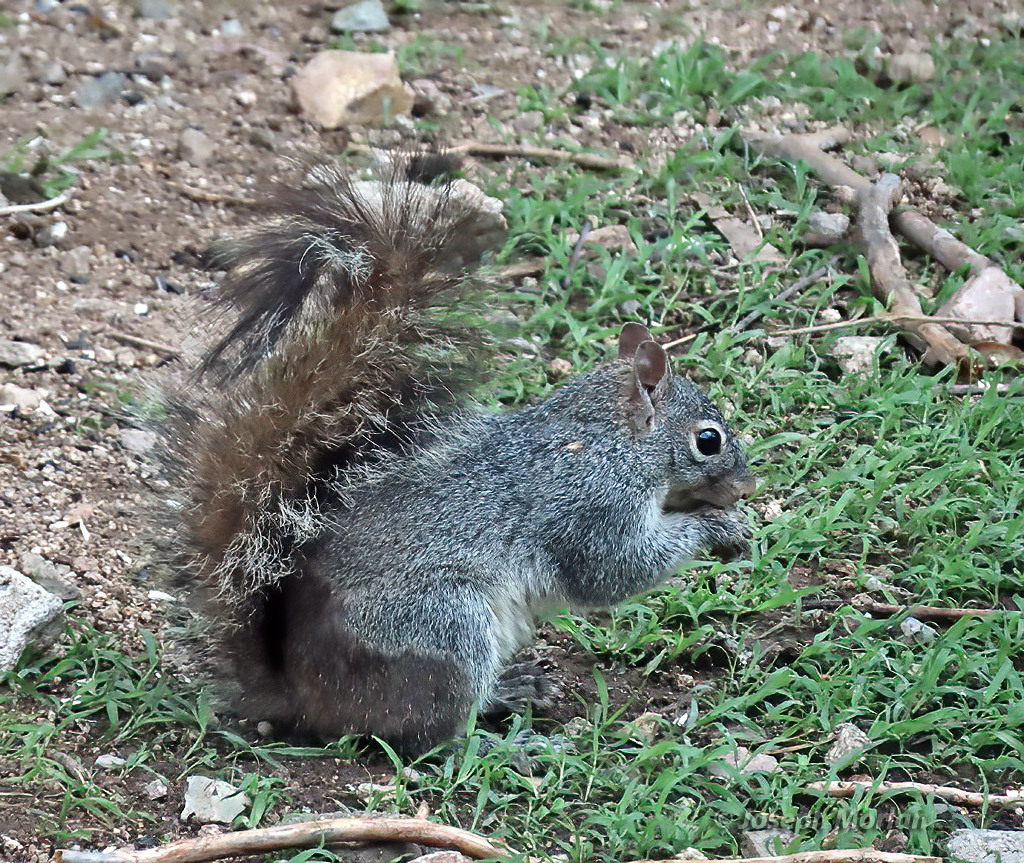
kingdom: Animalia
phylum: Chordata
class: Mammalia
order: Rodentia
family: Sciuridae
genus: Sciurus
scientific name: Sciurus arizonensis
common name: Arizona gray squirrel
